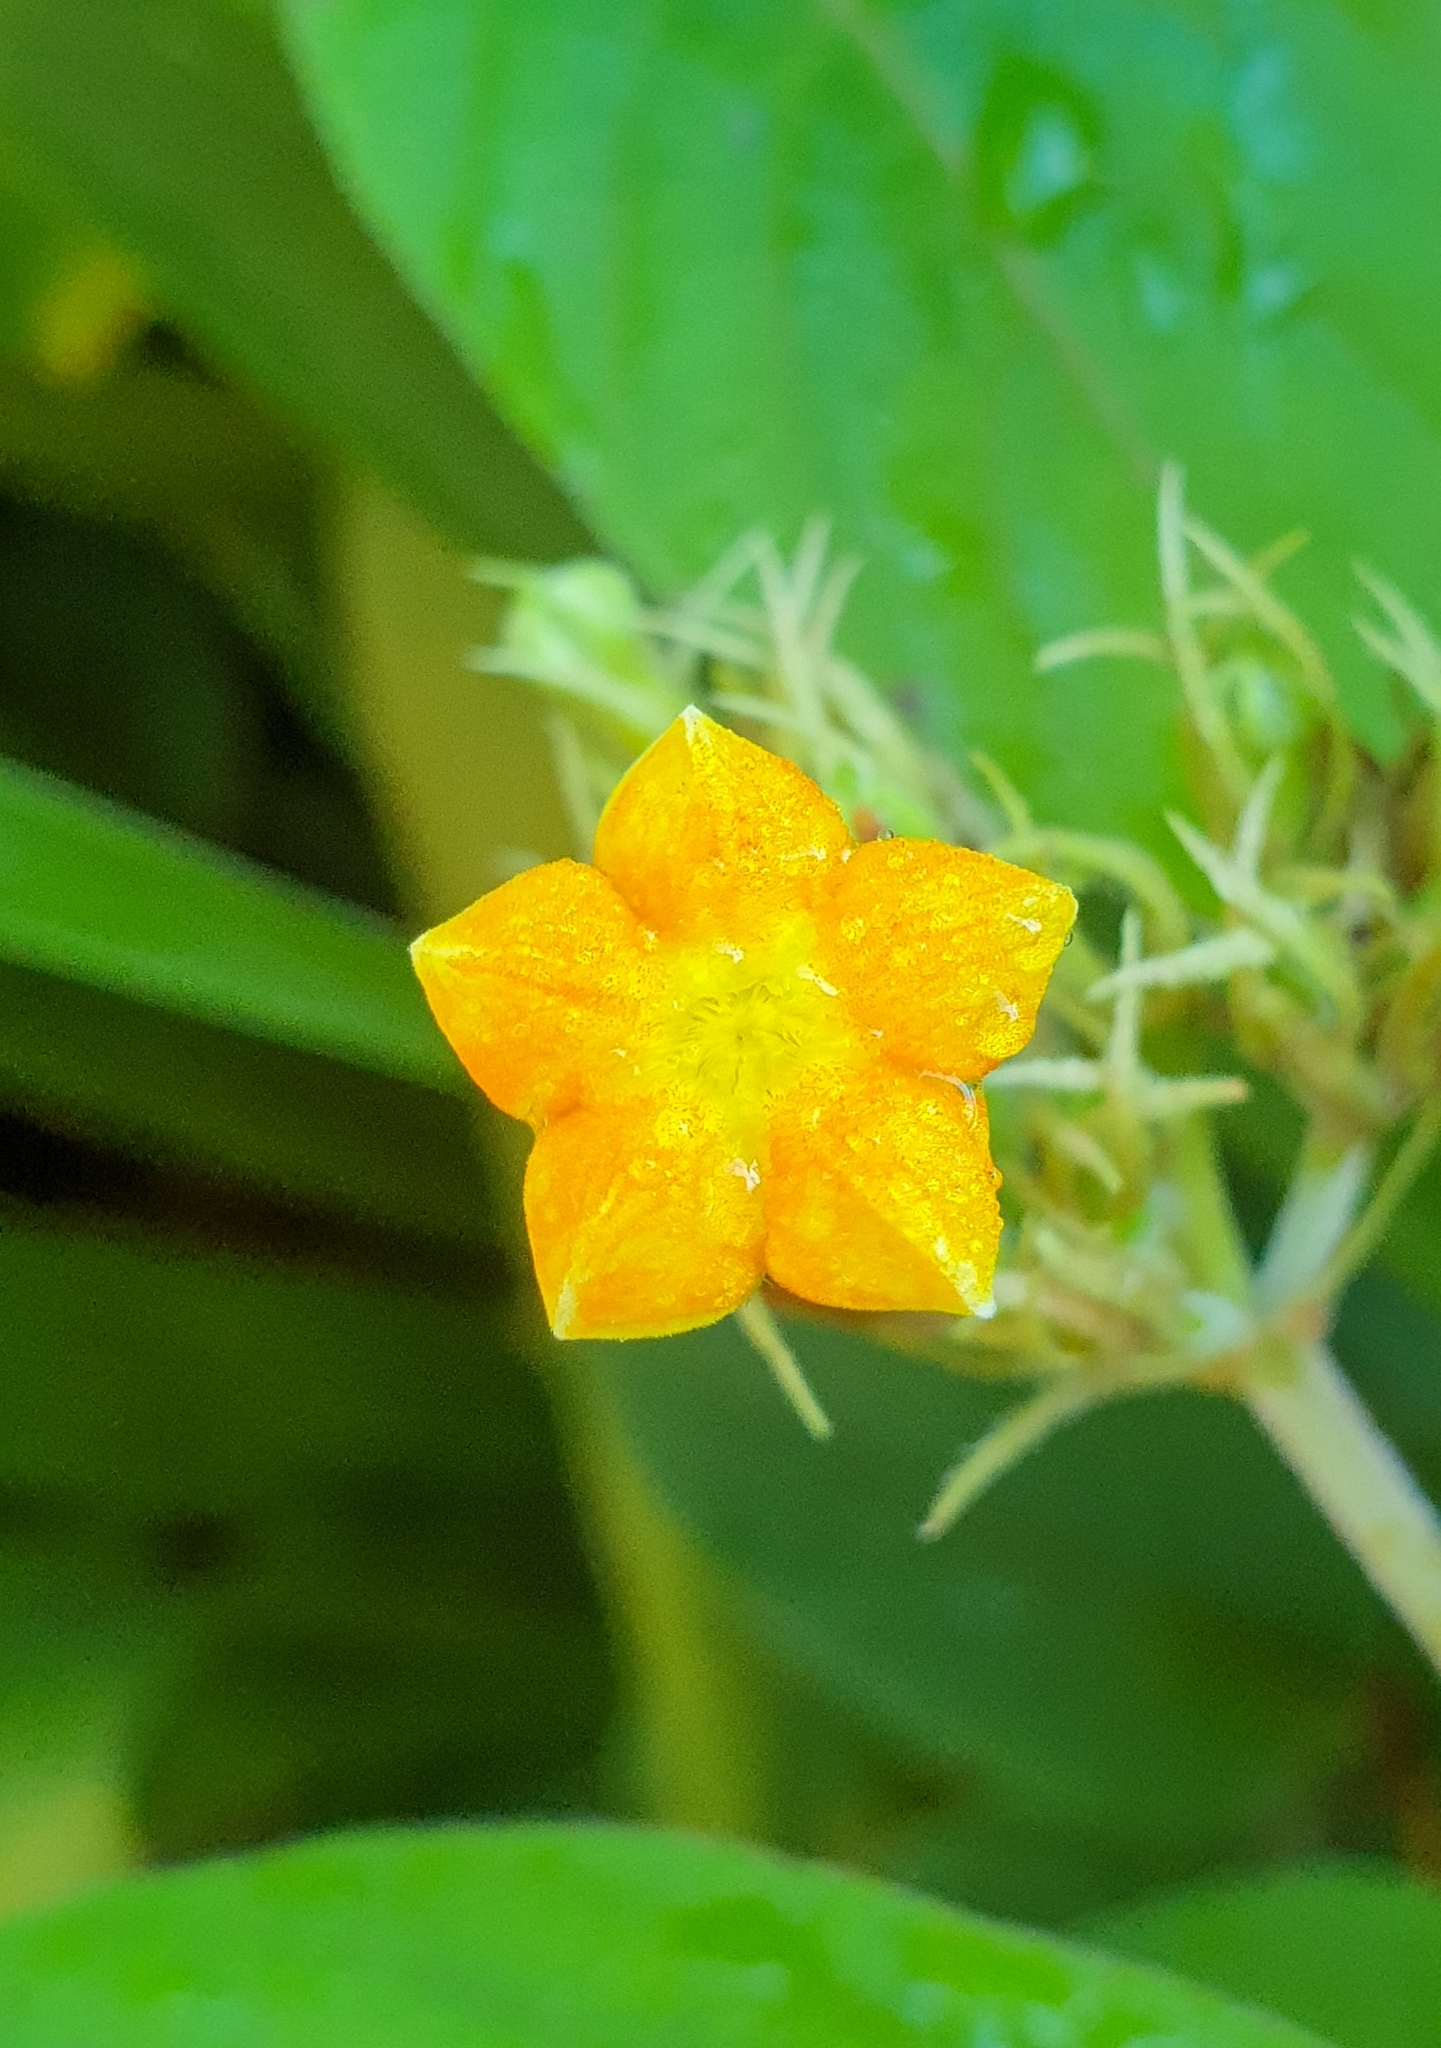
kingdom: Plantae
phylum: Tracheophyta
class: Magnoliopsida
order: Gentianales
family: Rubiaceae
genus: Mussaenda
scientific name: Mussaenda frondosa
